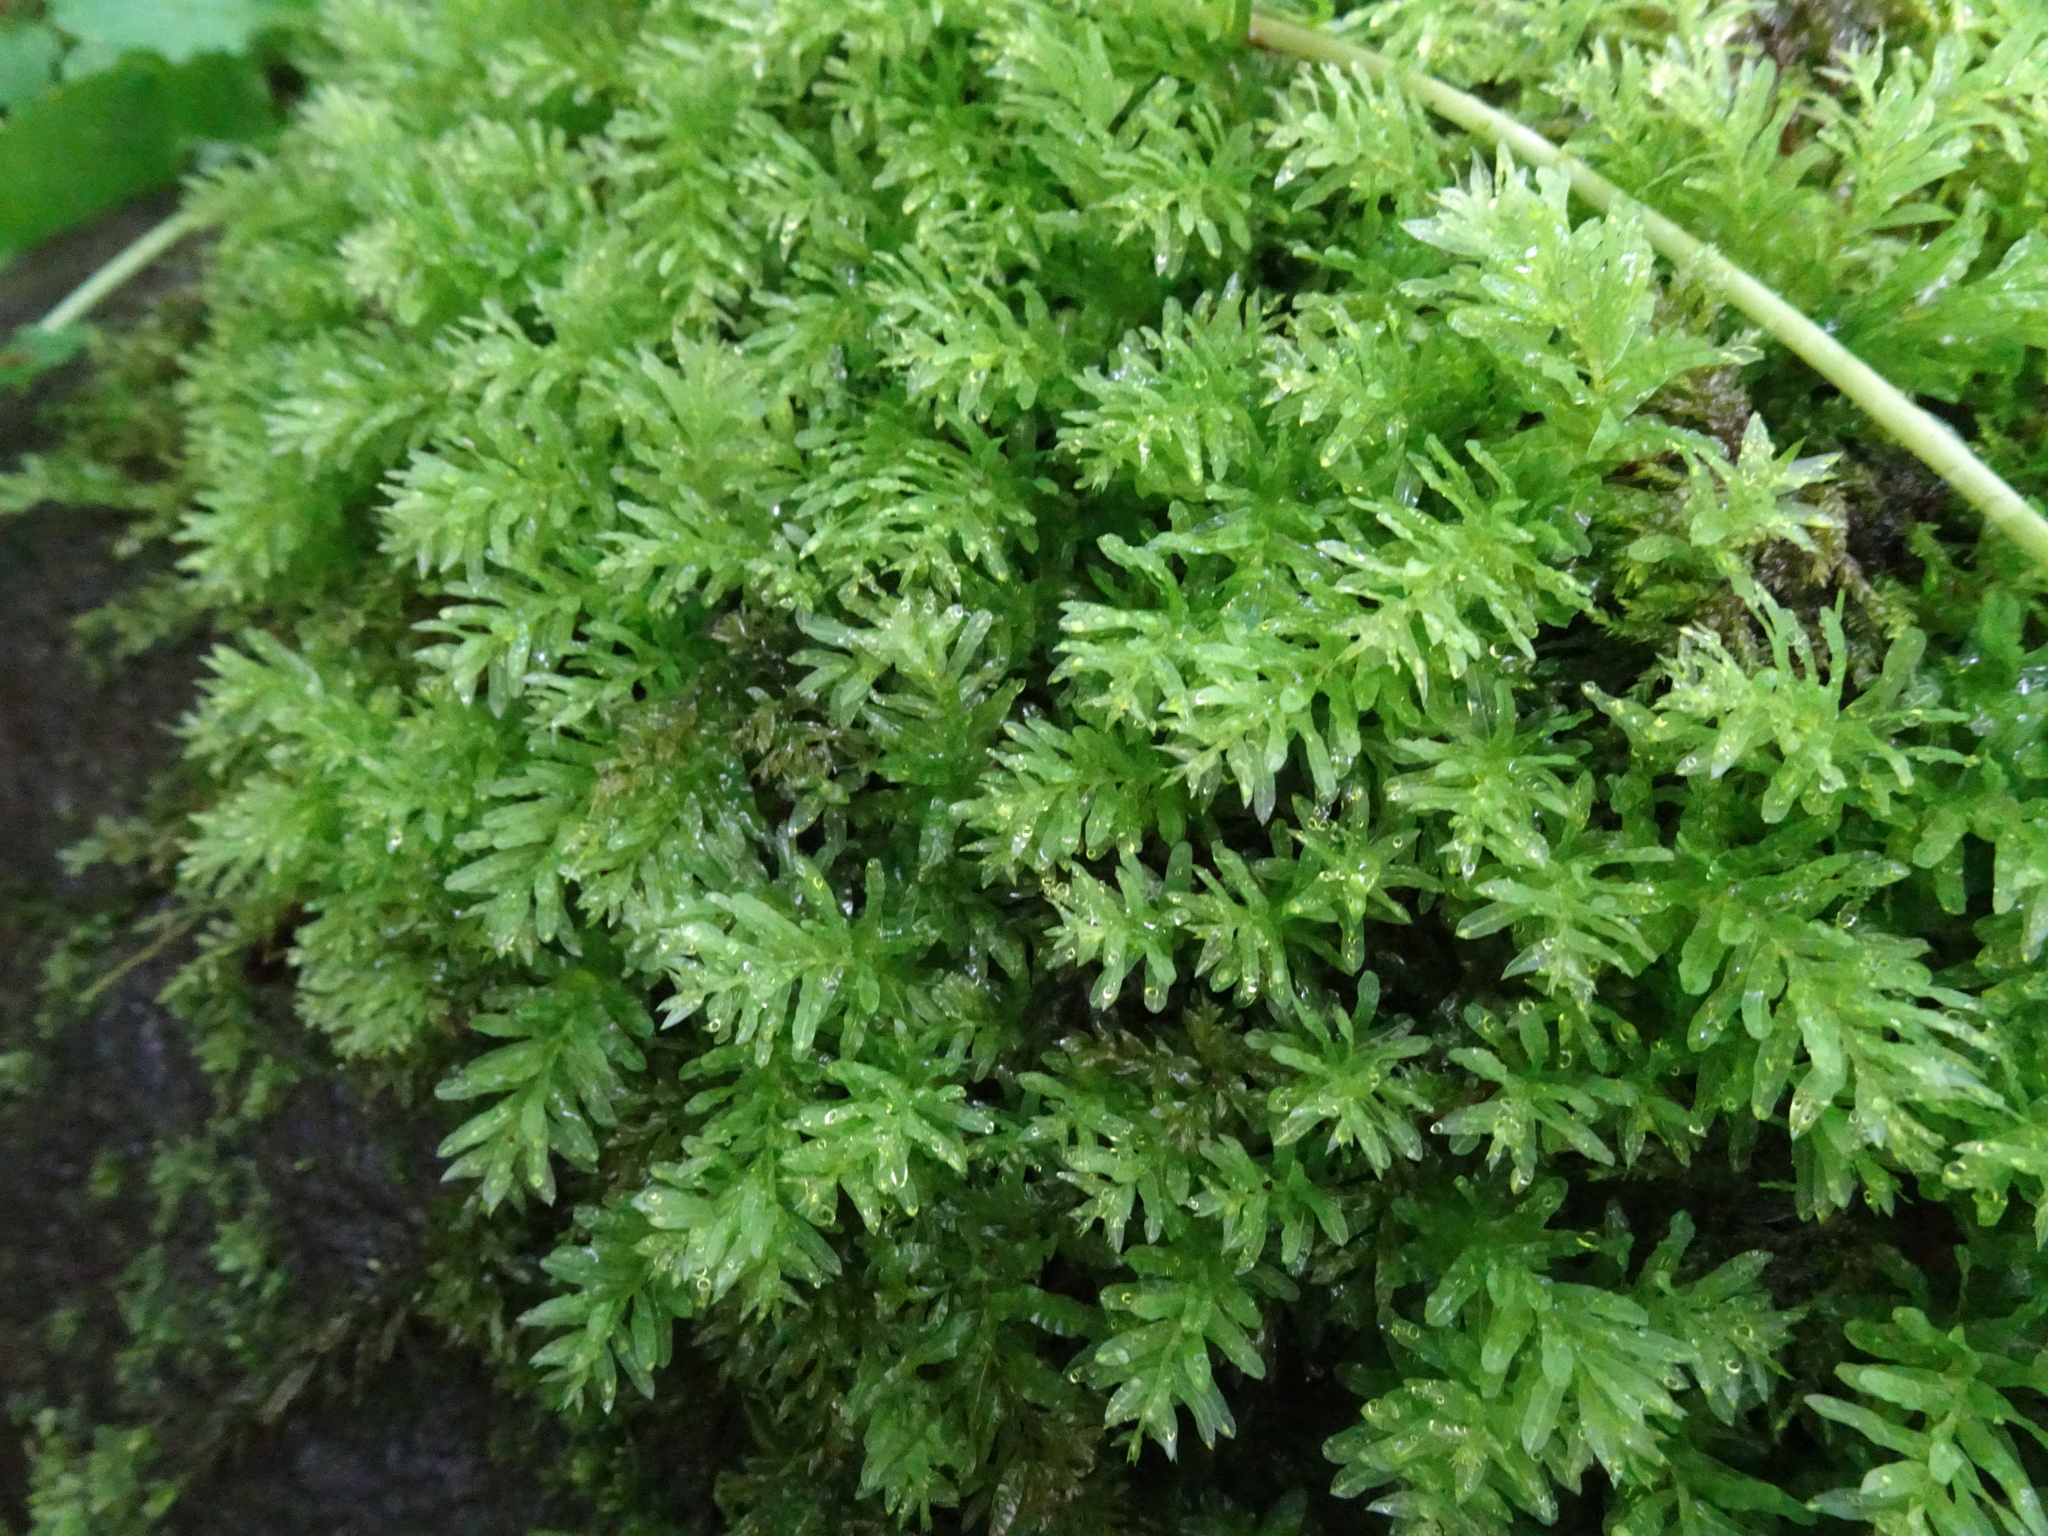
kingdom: Plantae
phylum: Bryophyta
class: Bryopsida
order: Bryales
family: Mniaceae
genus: Plagiomnium
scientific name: Plagiomnium undulatum
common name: Hart's-tongue thyme-moss
